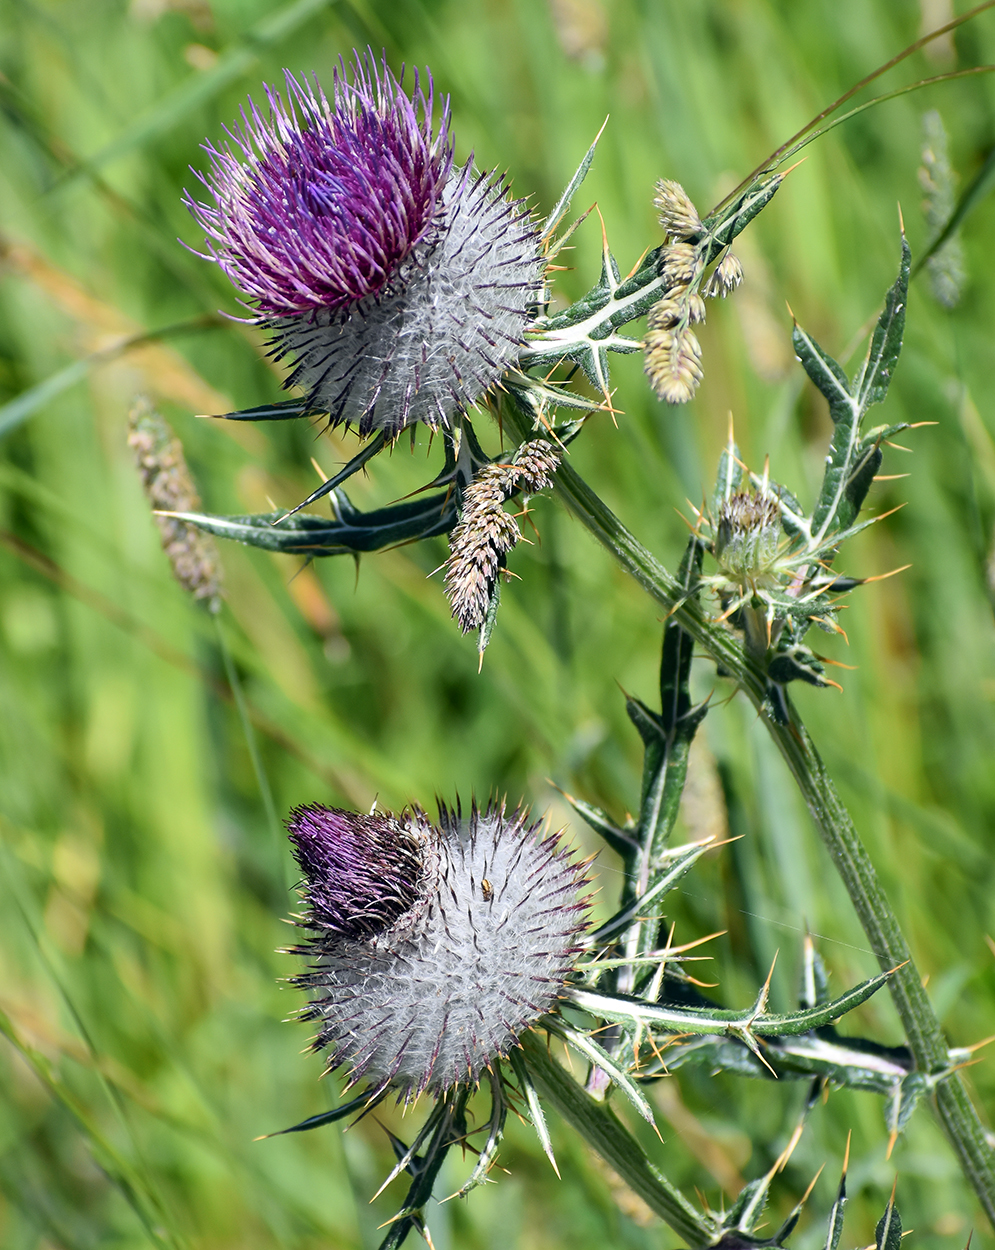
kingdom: Plantae
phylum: Tracheophyta
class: Magnoliopsida
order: Asterales
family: Asteraceae
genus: Lophiolepis
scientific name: Lophiolepis eriophora
